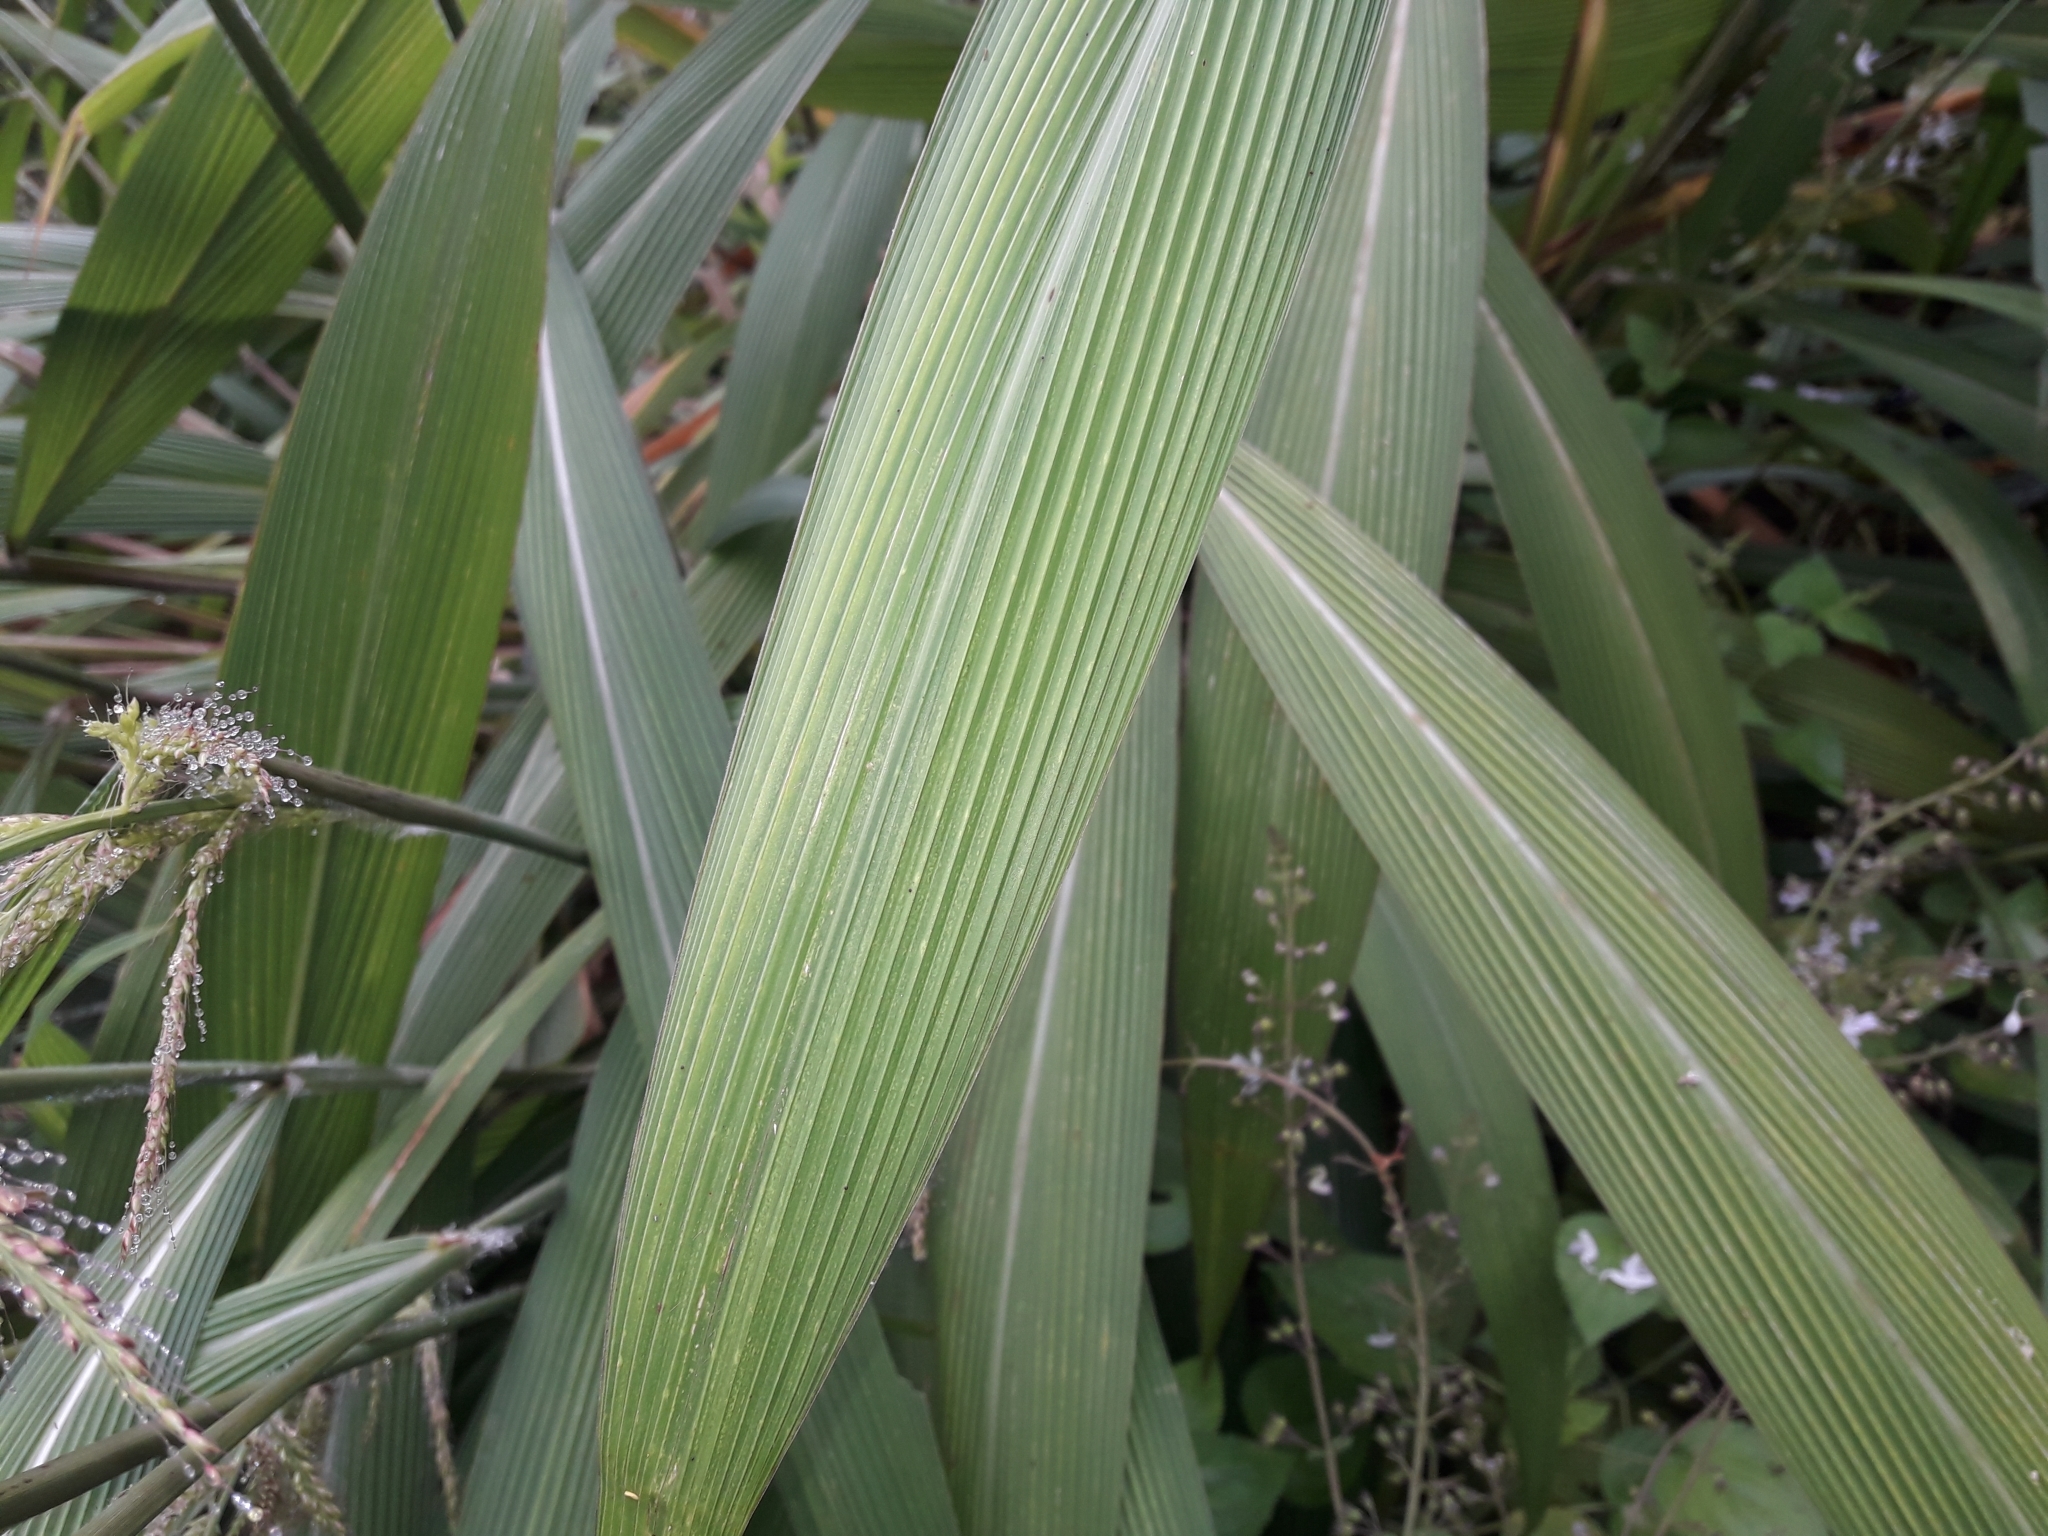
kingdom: Plantae
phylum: Tracheophyta
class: Liliopsida
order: Poales
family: Poaceae
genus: Setaria
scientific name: Setaria megaphylla
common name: Bigleaf bristlegrass
